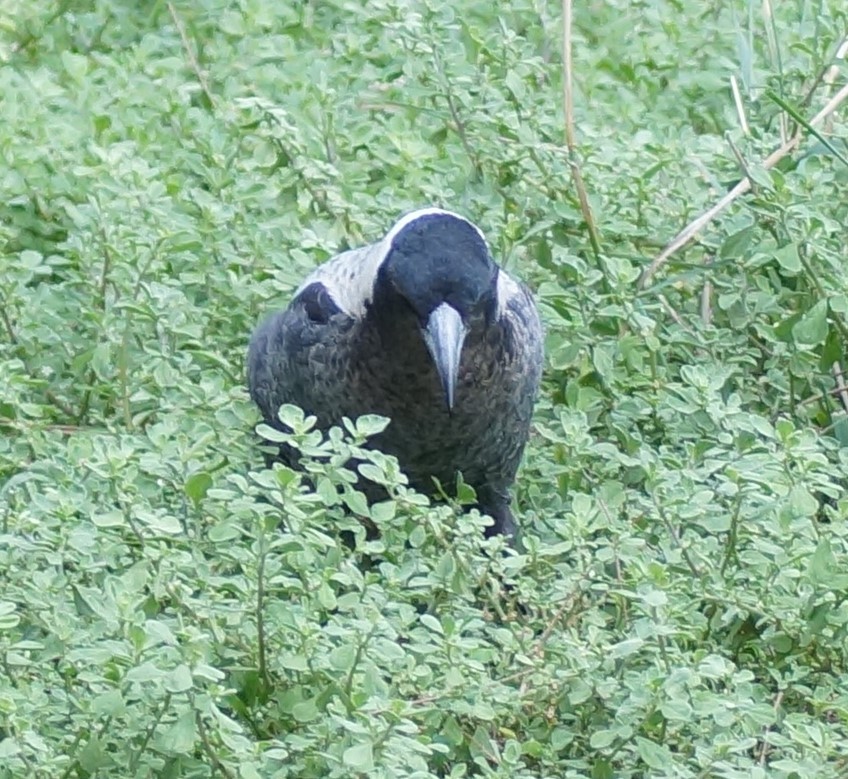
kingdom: Animalia
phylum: Chordata
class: Aves
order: Passeriformes
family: Cracticidae
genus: Gymnorhina
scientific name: Gymnorhina tibicen
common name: Australian magpie
